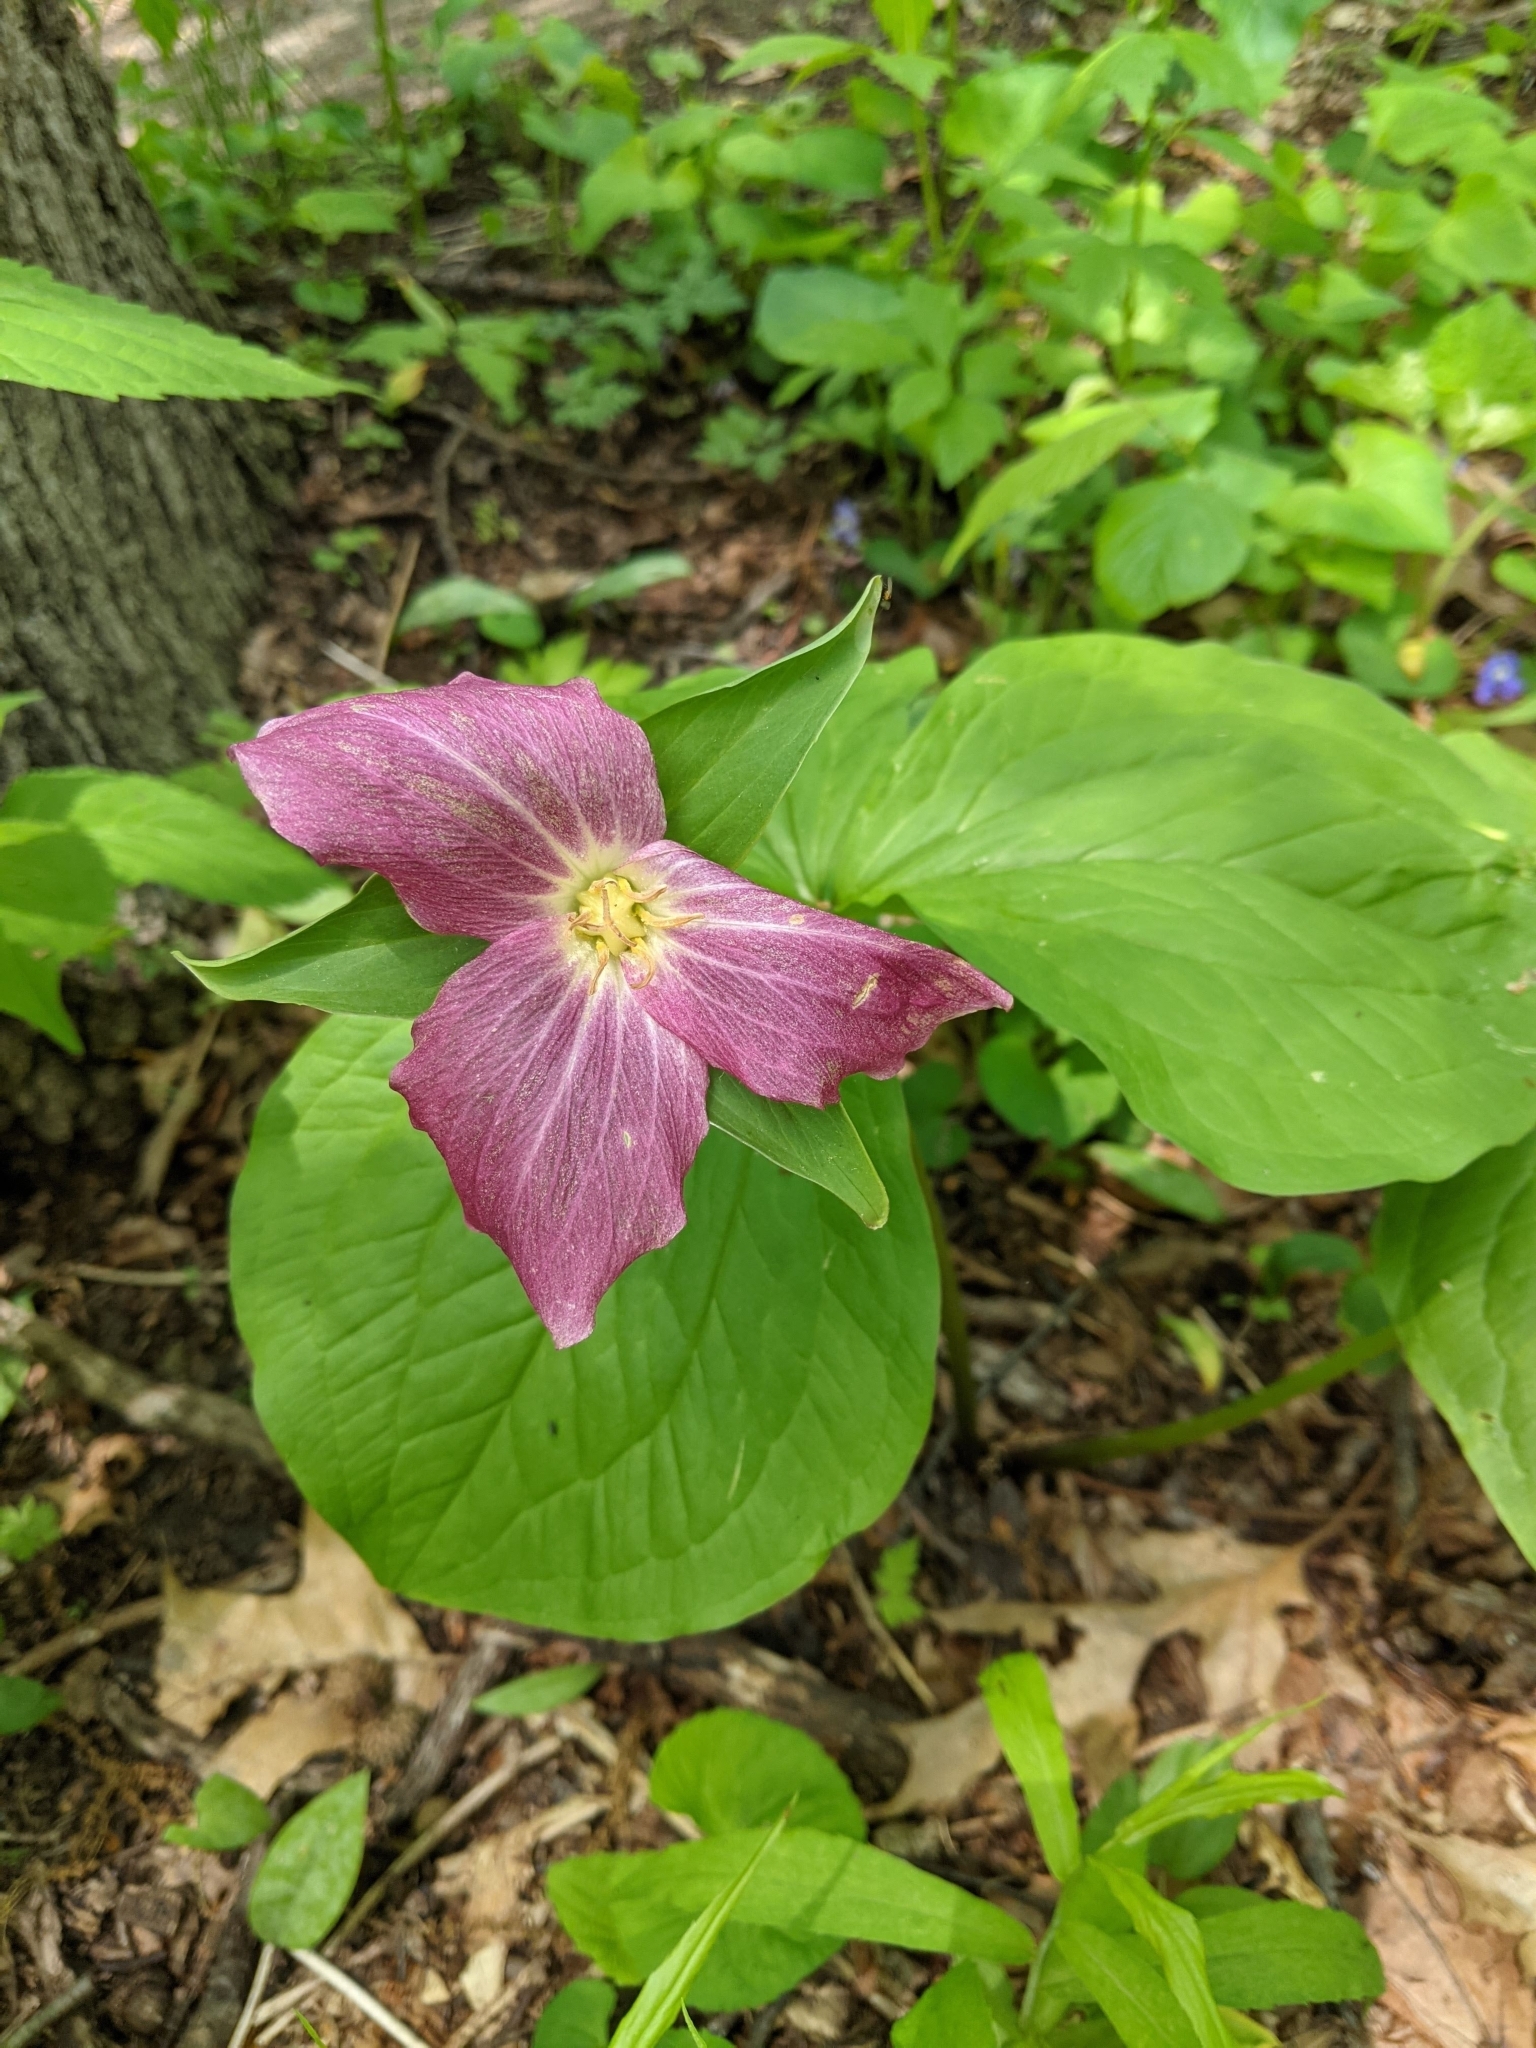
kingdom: Plantae
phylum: Tracheophyta
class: Liliopsida
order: Liliales
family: Melanthiaceae
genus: Trillium
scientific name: Trillium grandiflorum
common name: Great white trillium
